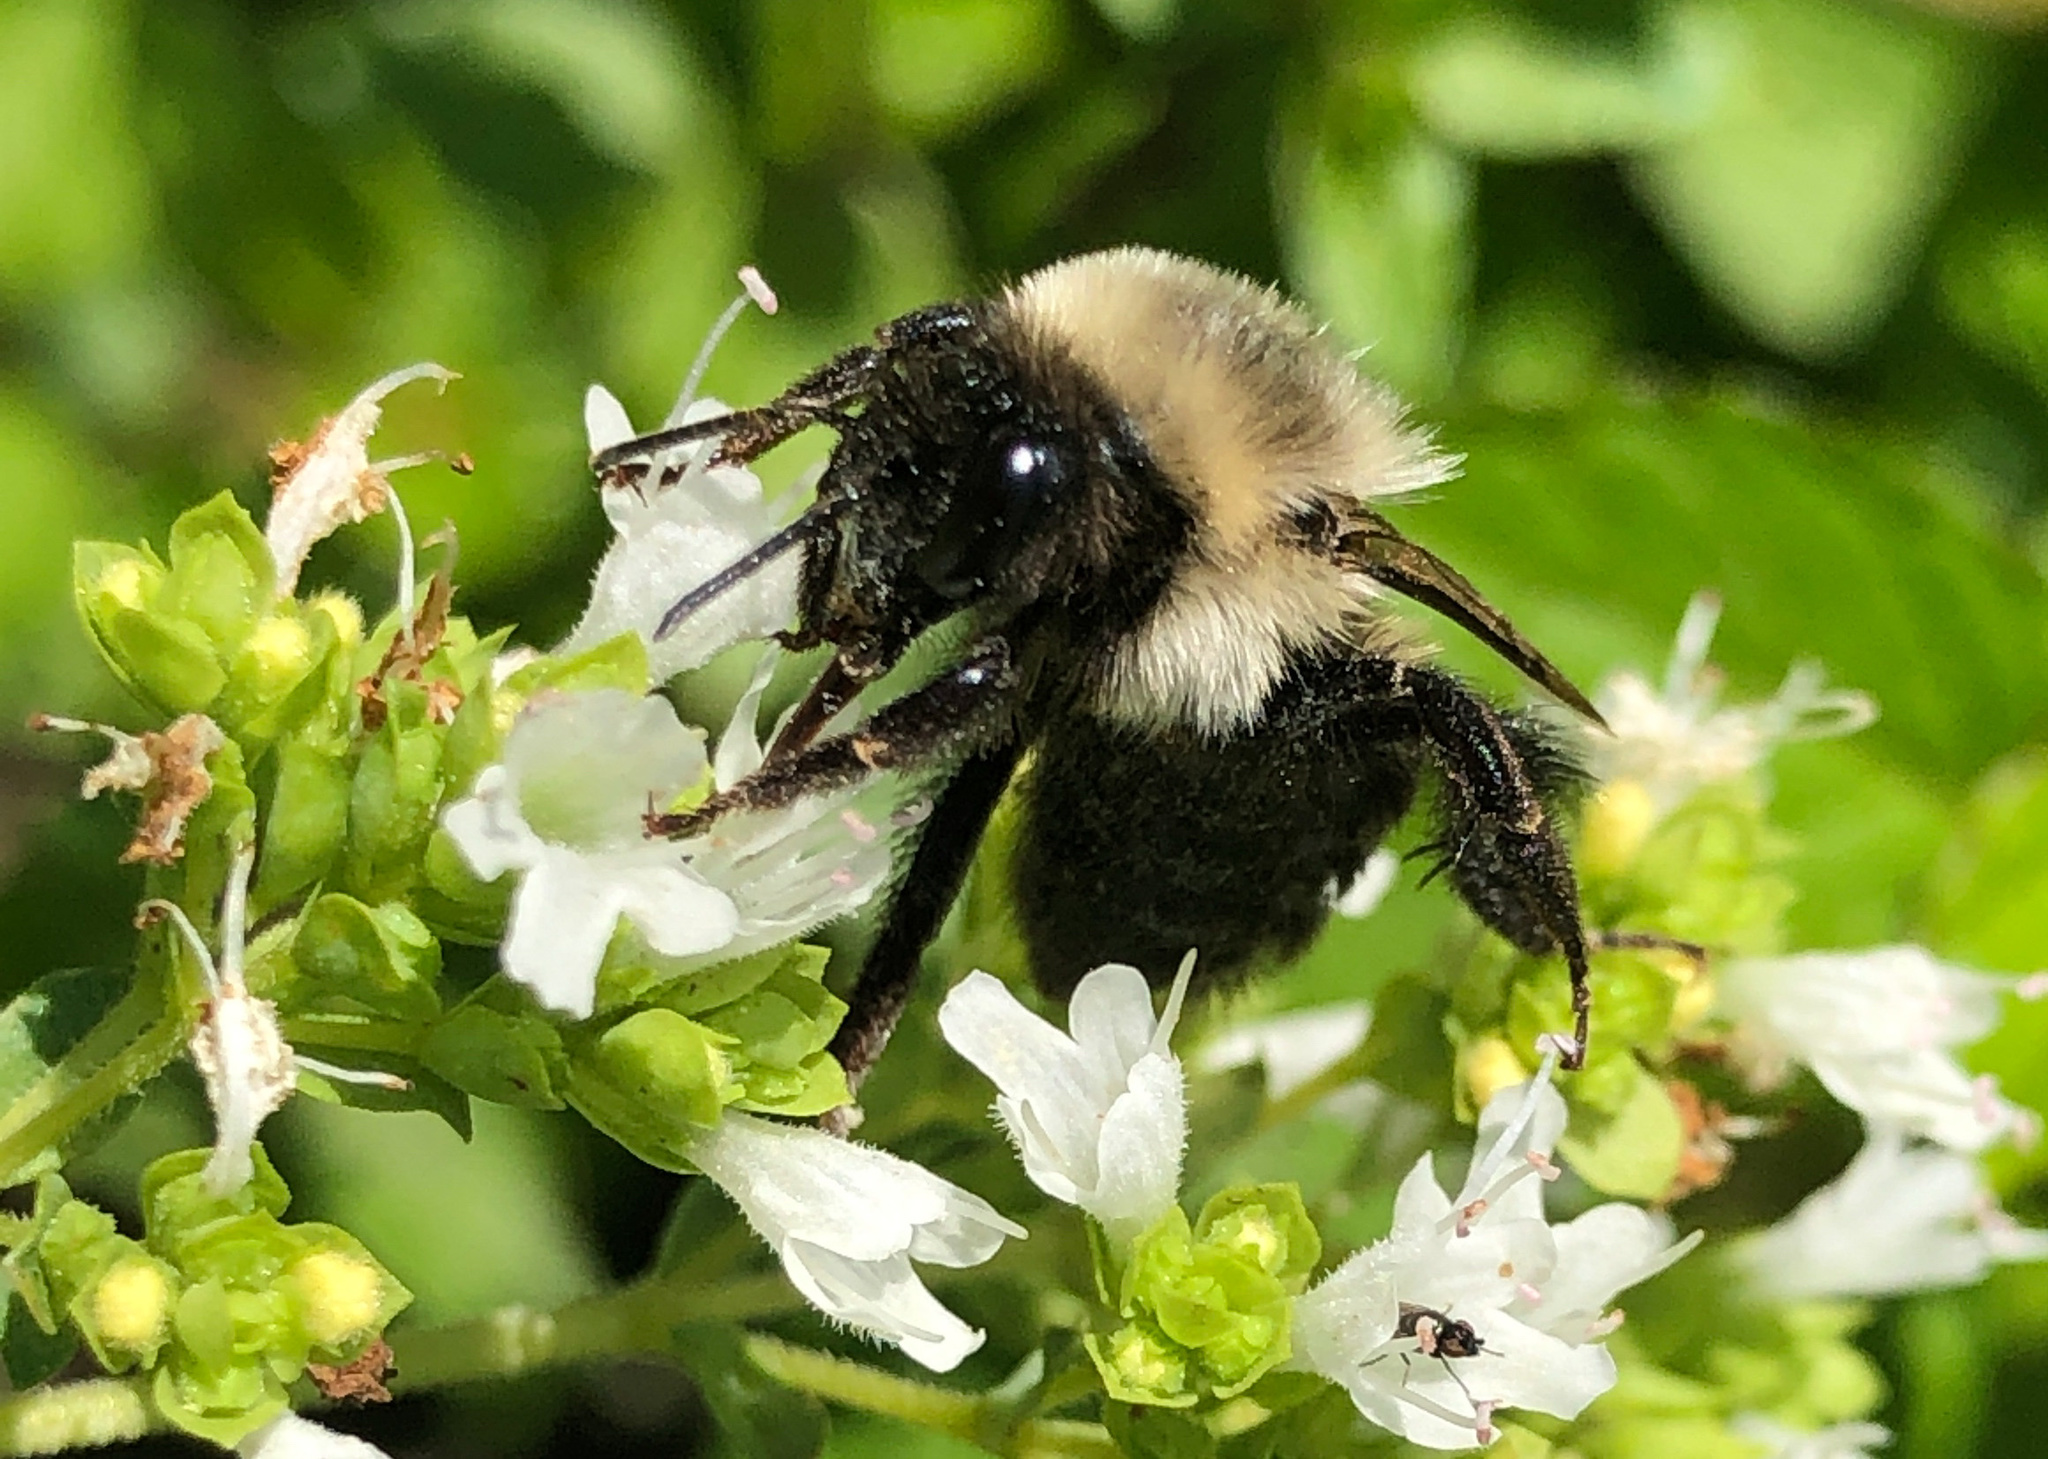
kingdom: Animalia
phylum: Arthropoda
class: Insecta
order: Hymenoptera
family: Apidae
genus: Bombus
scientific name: Bombus impatiens
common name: Common eastern bumble bee
